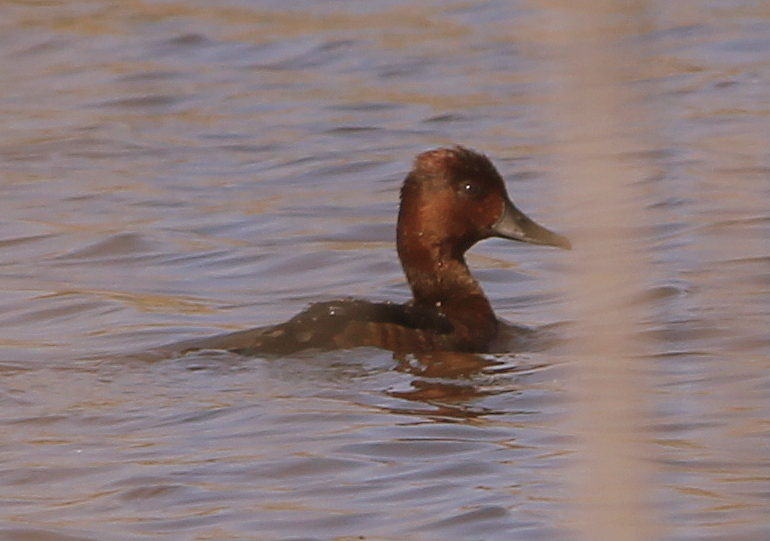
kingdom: Animalia
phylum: Chordata
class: Aves
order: Anseriformes
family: Anatidae
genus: Aythya
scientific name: Aythya nyroca
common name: Ferruginous duck
